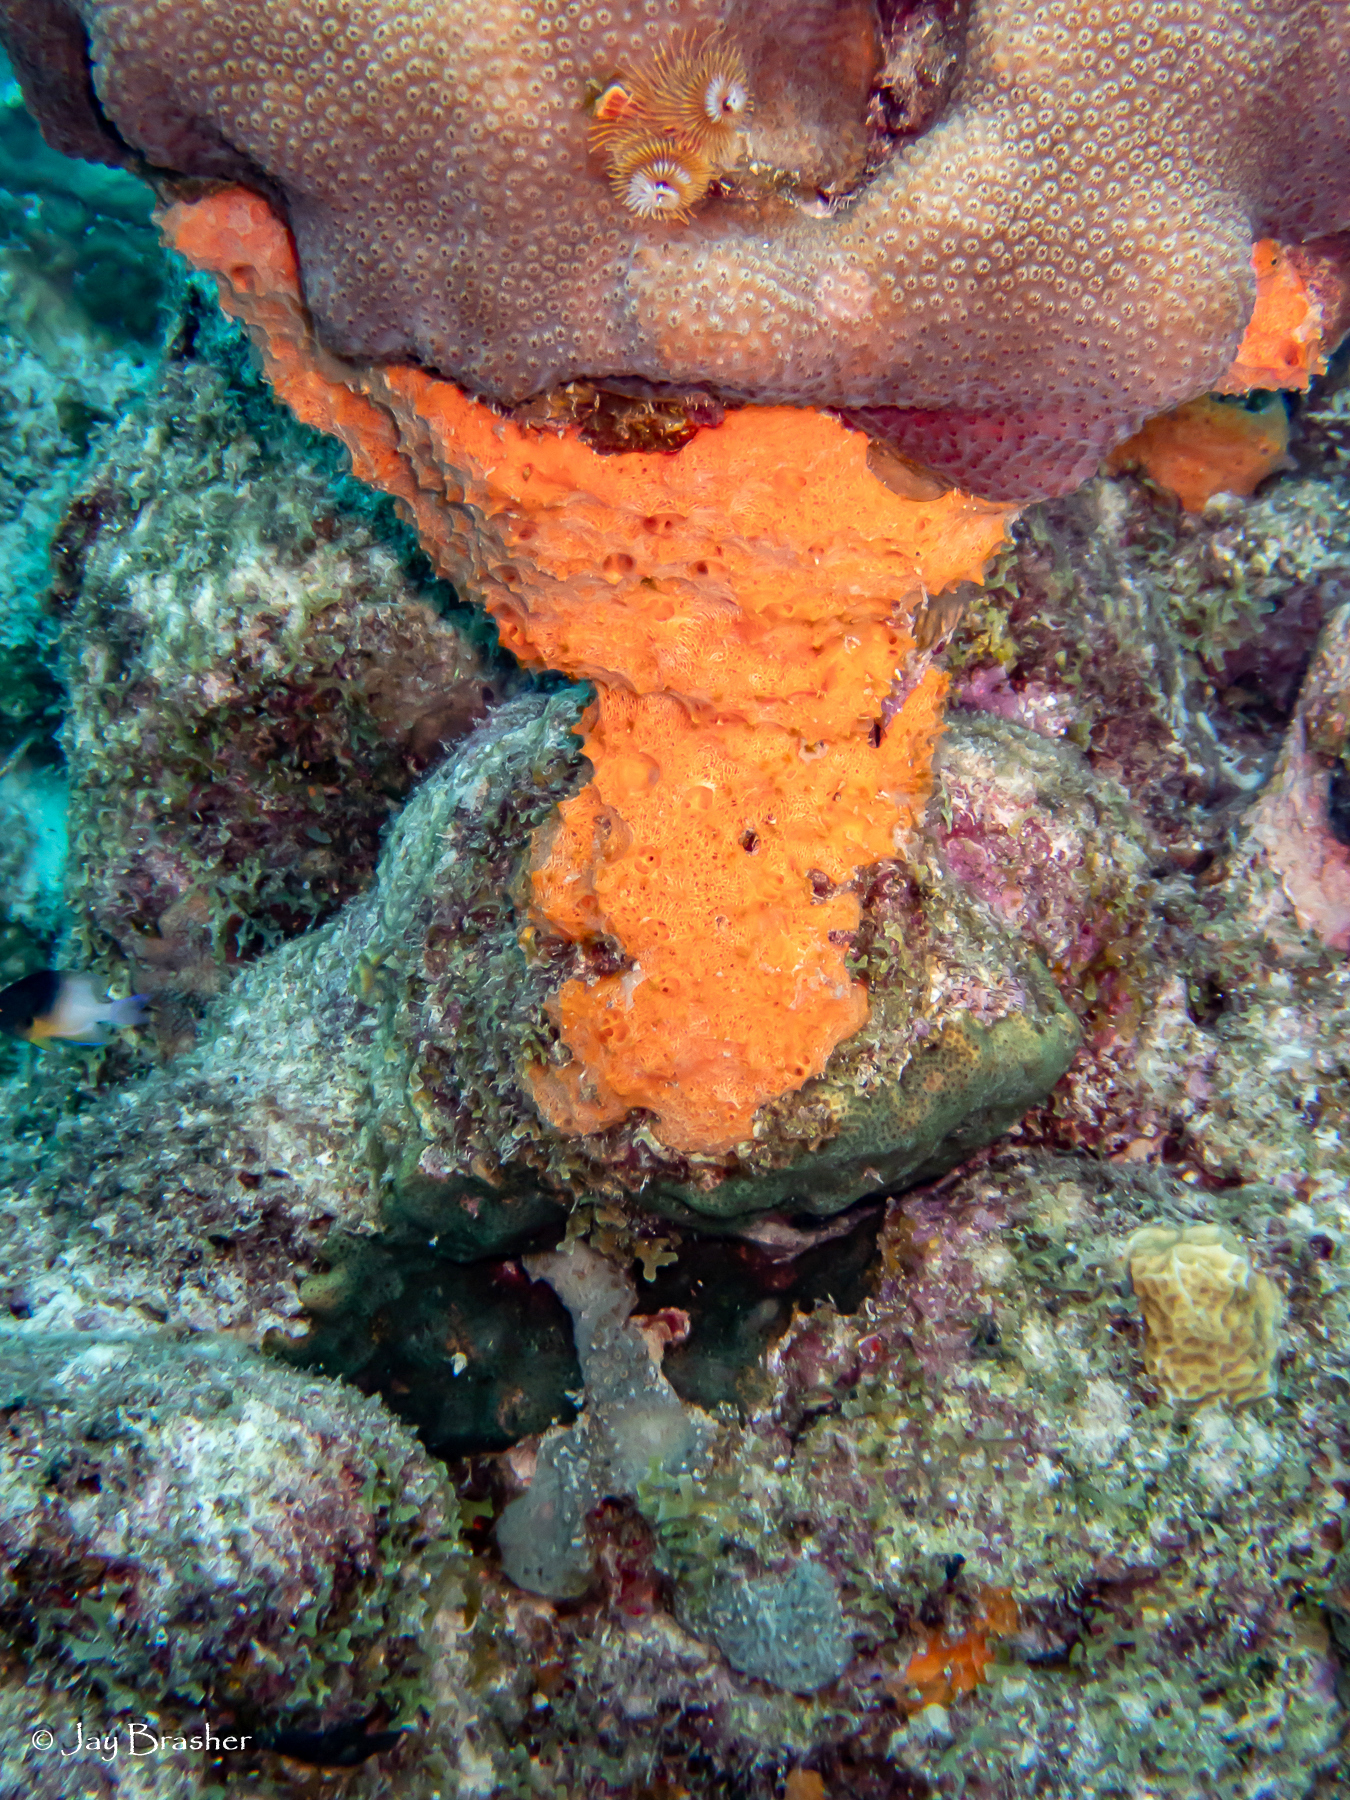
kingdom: Animalia
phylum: Annelida
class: Polychaeta
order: Sabellida
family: Serpulidae
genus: Spirobranchus
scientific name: Spirobranchus giganteus
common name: Christmas tree worm
